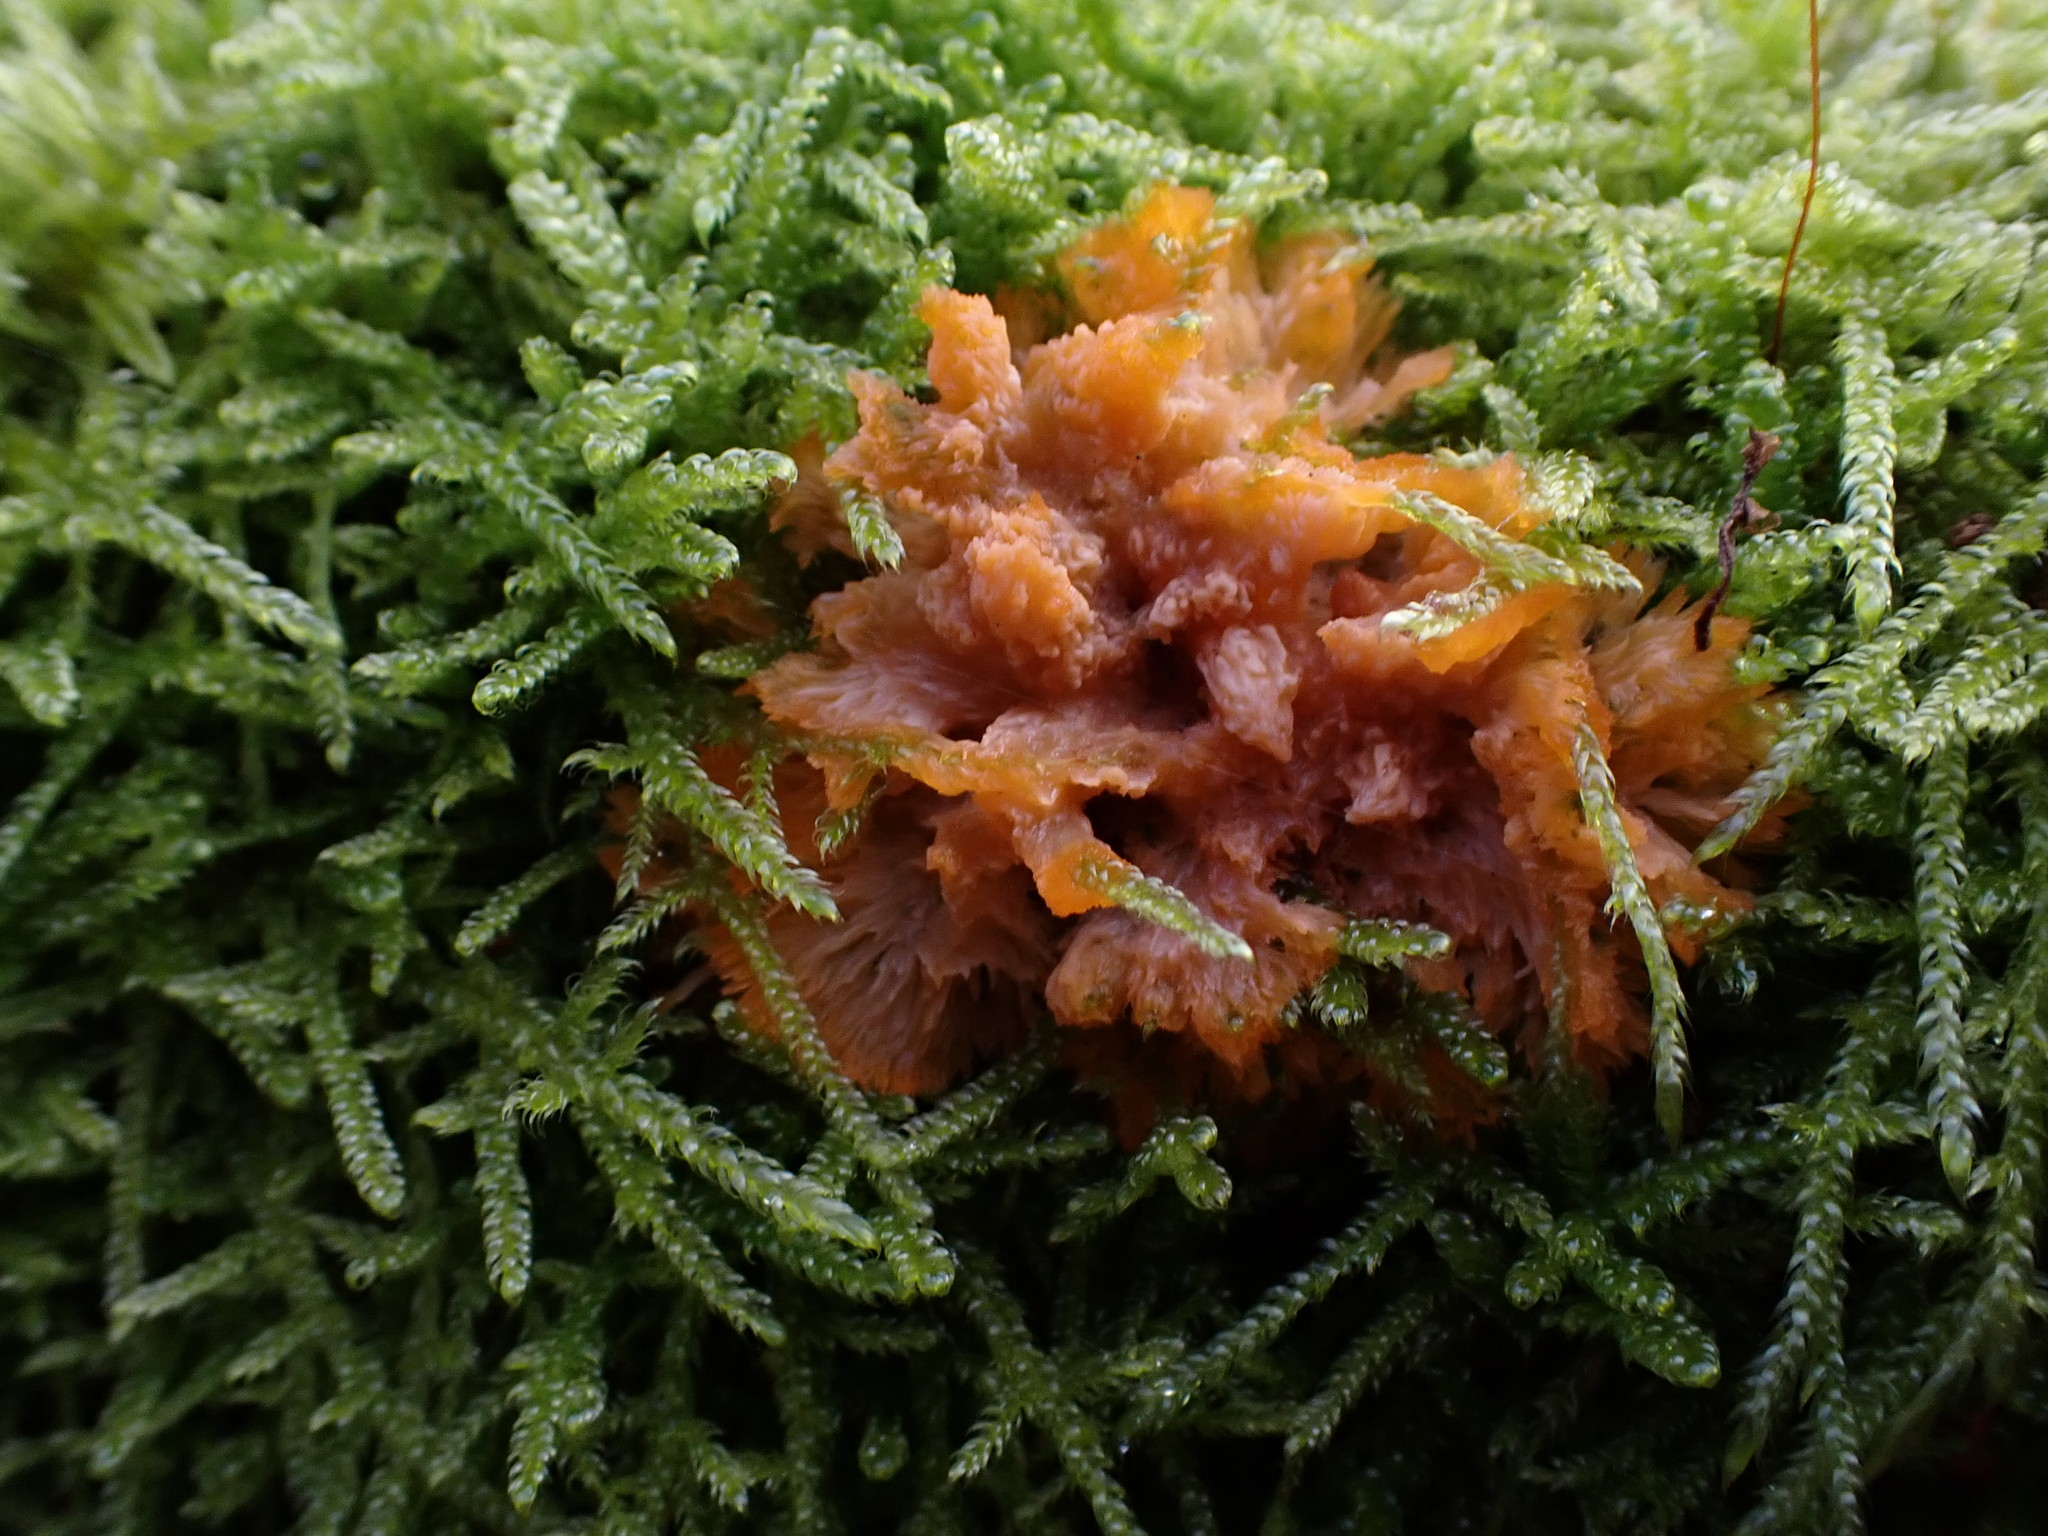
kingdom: Fungi
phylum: Basidiomycota
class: Agaricomycetes
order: Polyporales
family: Meruliaceae
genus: Phlebia
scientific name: Phlebia radiata
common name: Wrinkled crust
